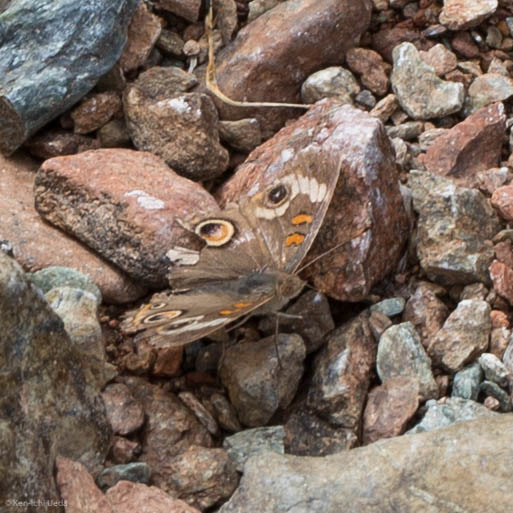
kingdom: Animalia
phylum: Arthropoda
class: Insecta
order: Lepidoptera
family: Nymphalidae
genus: Junonia
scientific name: Junonia grisea
